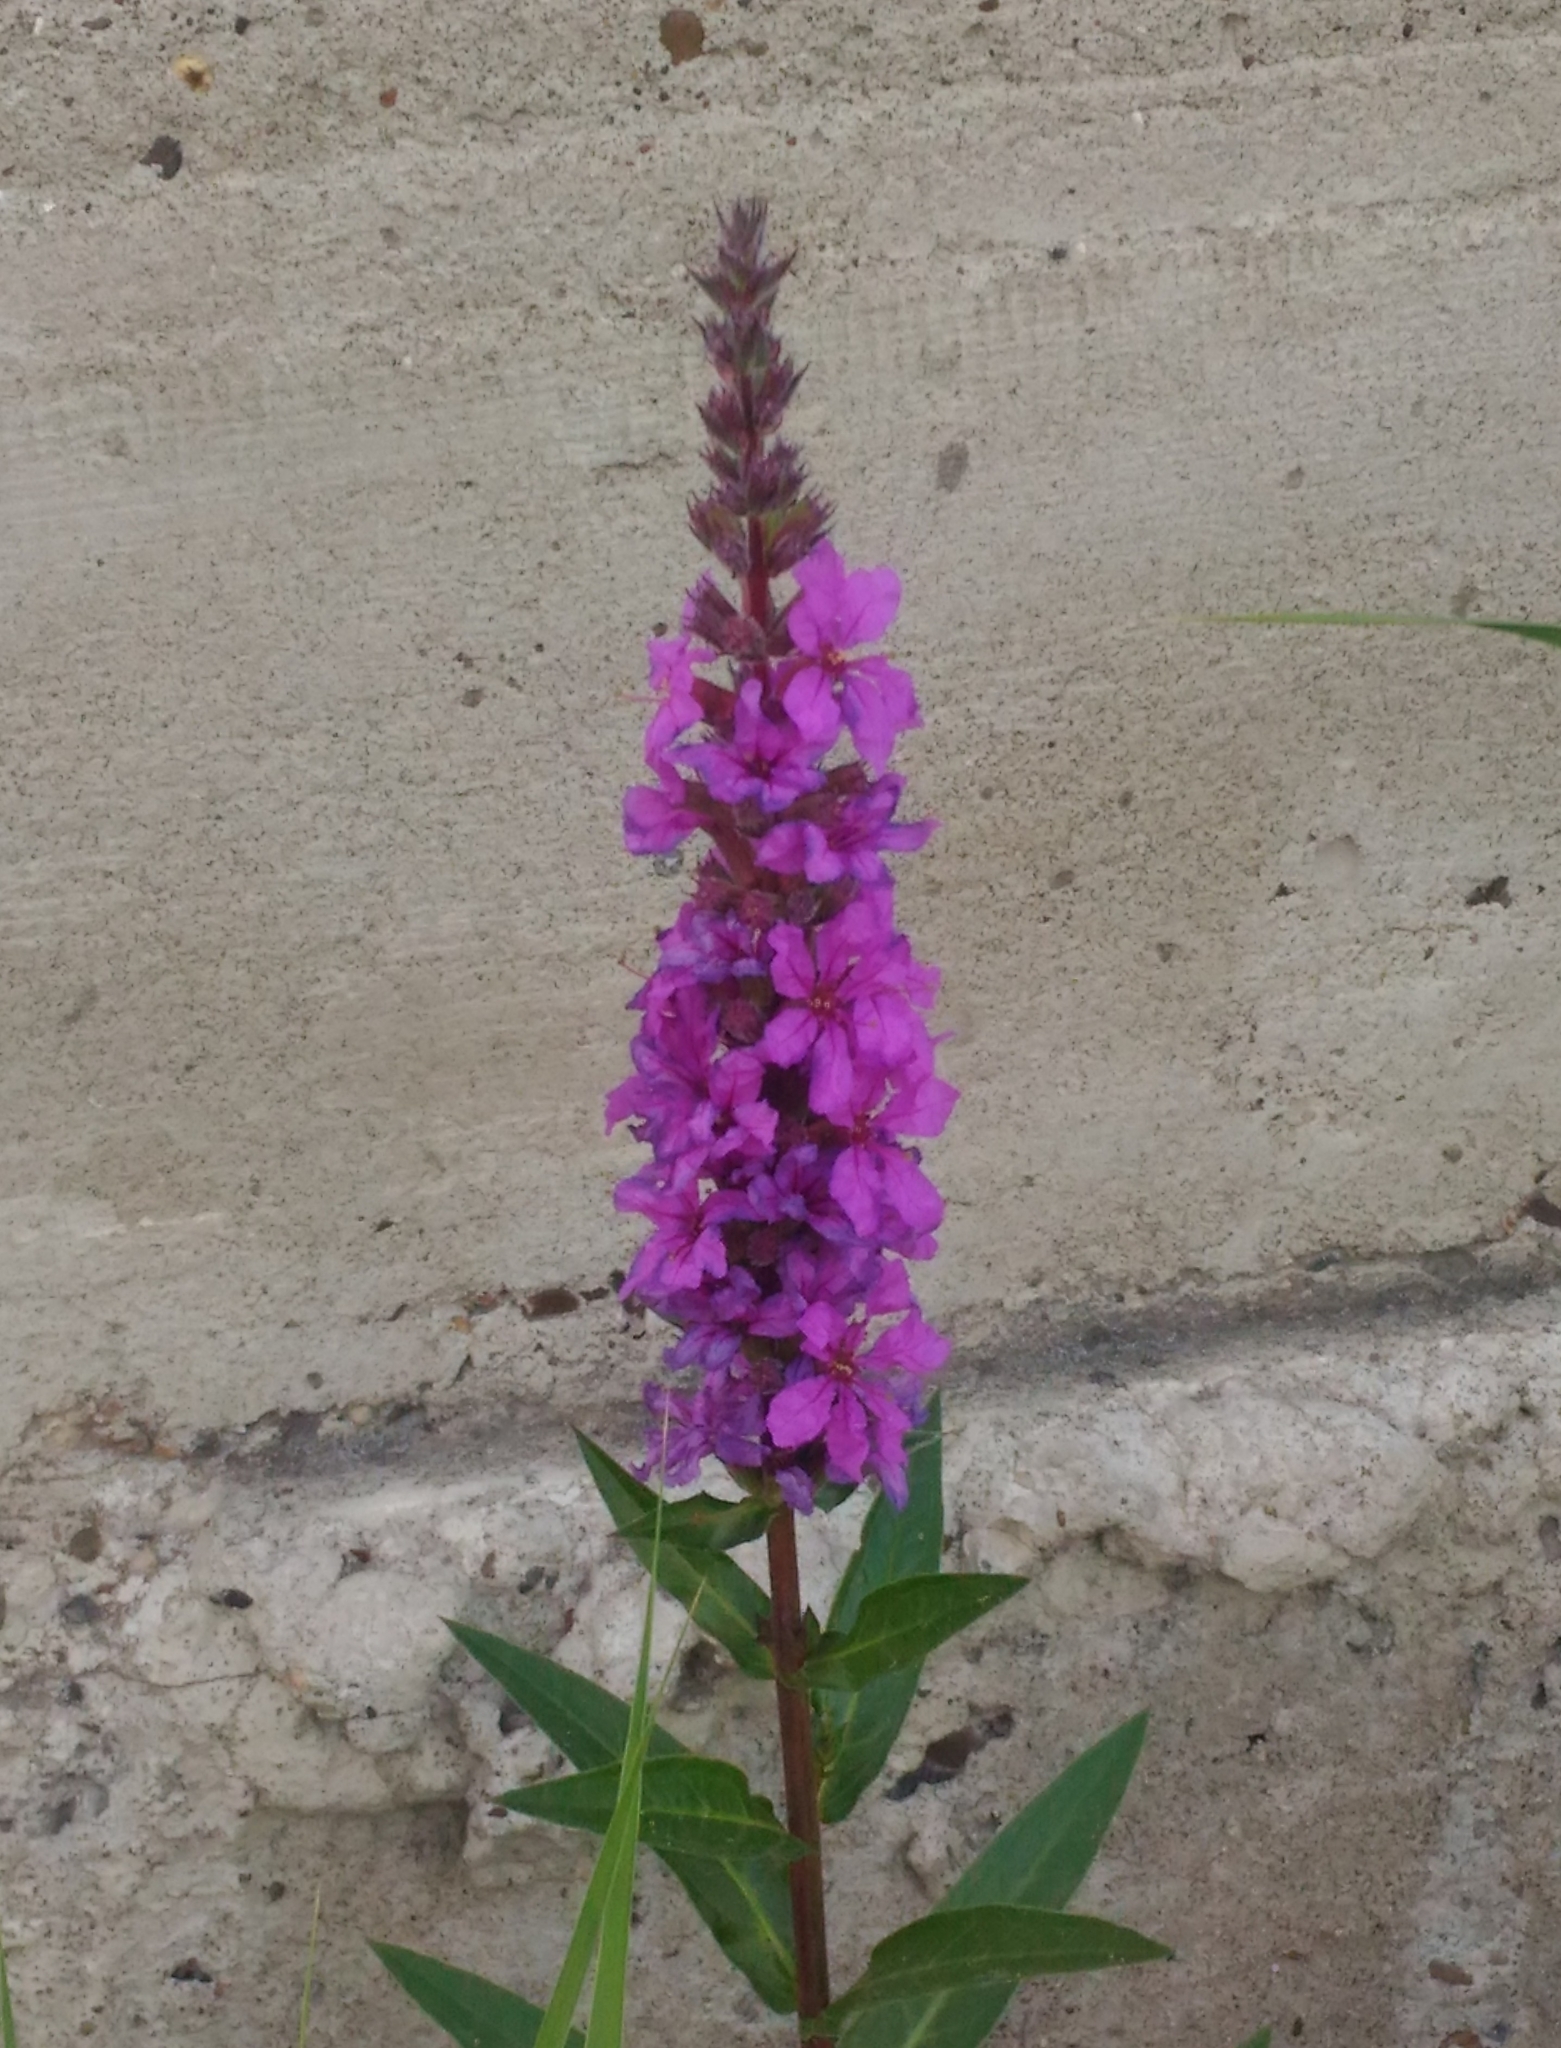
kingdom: Plantae
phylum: Tracheophyta
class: Magnoliopsida
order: Myrtales
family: Lythraceae
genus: Lythrum
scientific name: Lythrum salicaria
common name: Purple loosestrife
